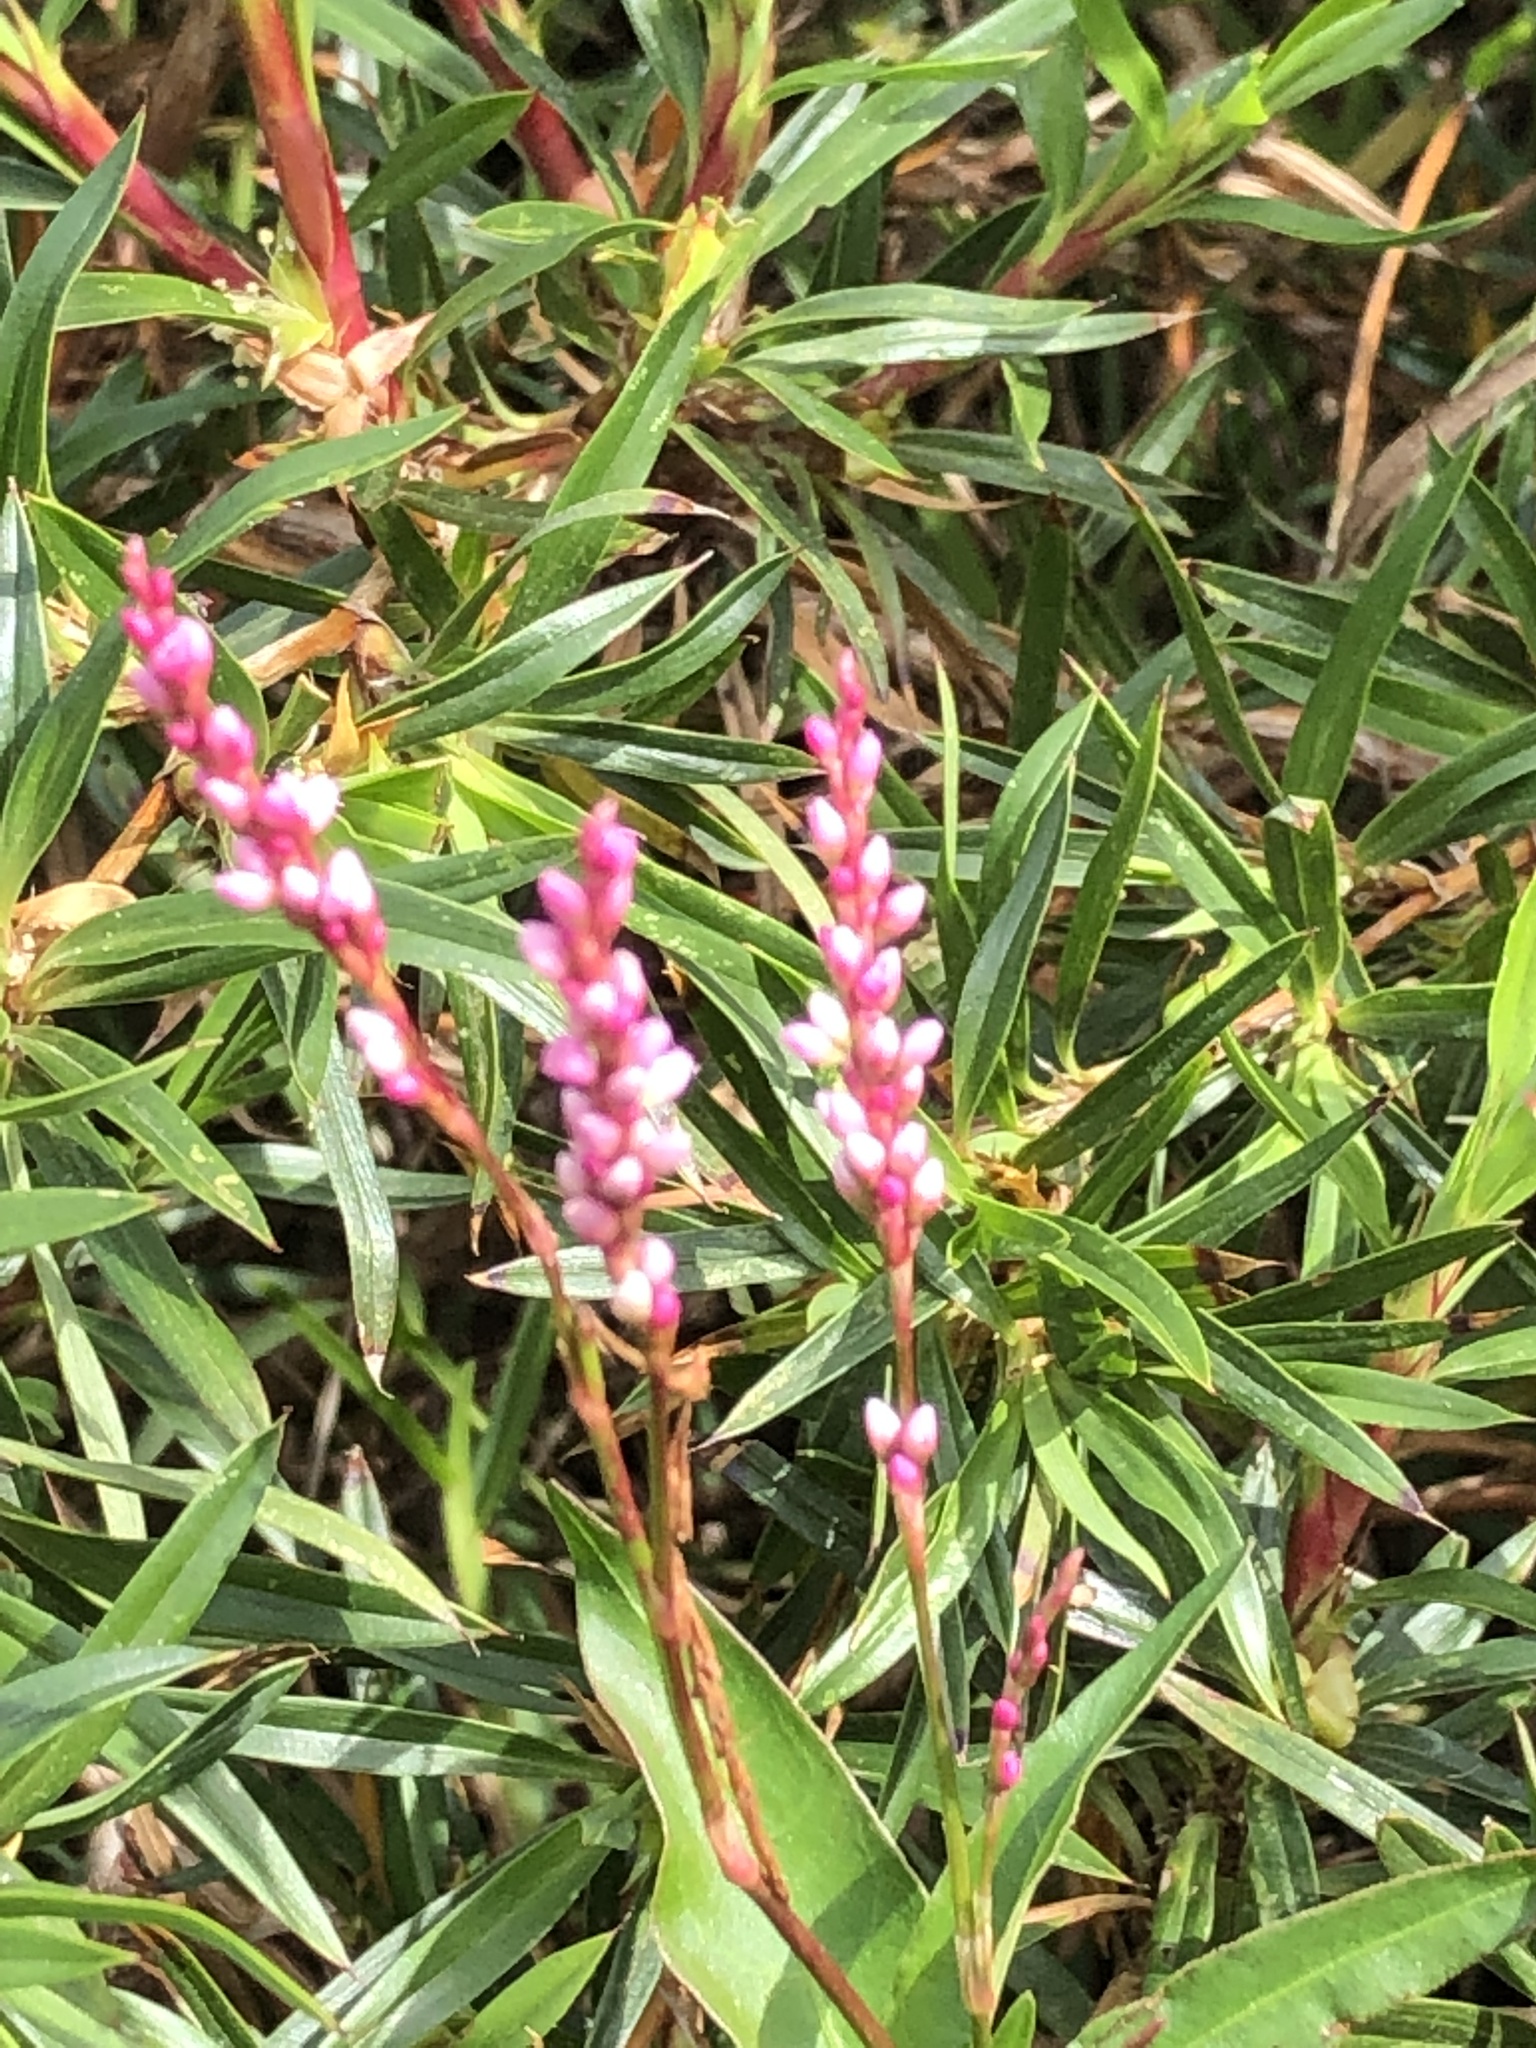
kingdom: Plantae
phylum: Tracheophyta
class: Magnoliopsida
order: Caryophyllales
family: Polygonaceae
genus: Persicaria
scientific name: Persicaria decipiens
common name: Willow-weed
